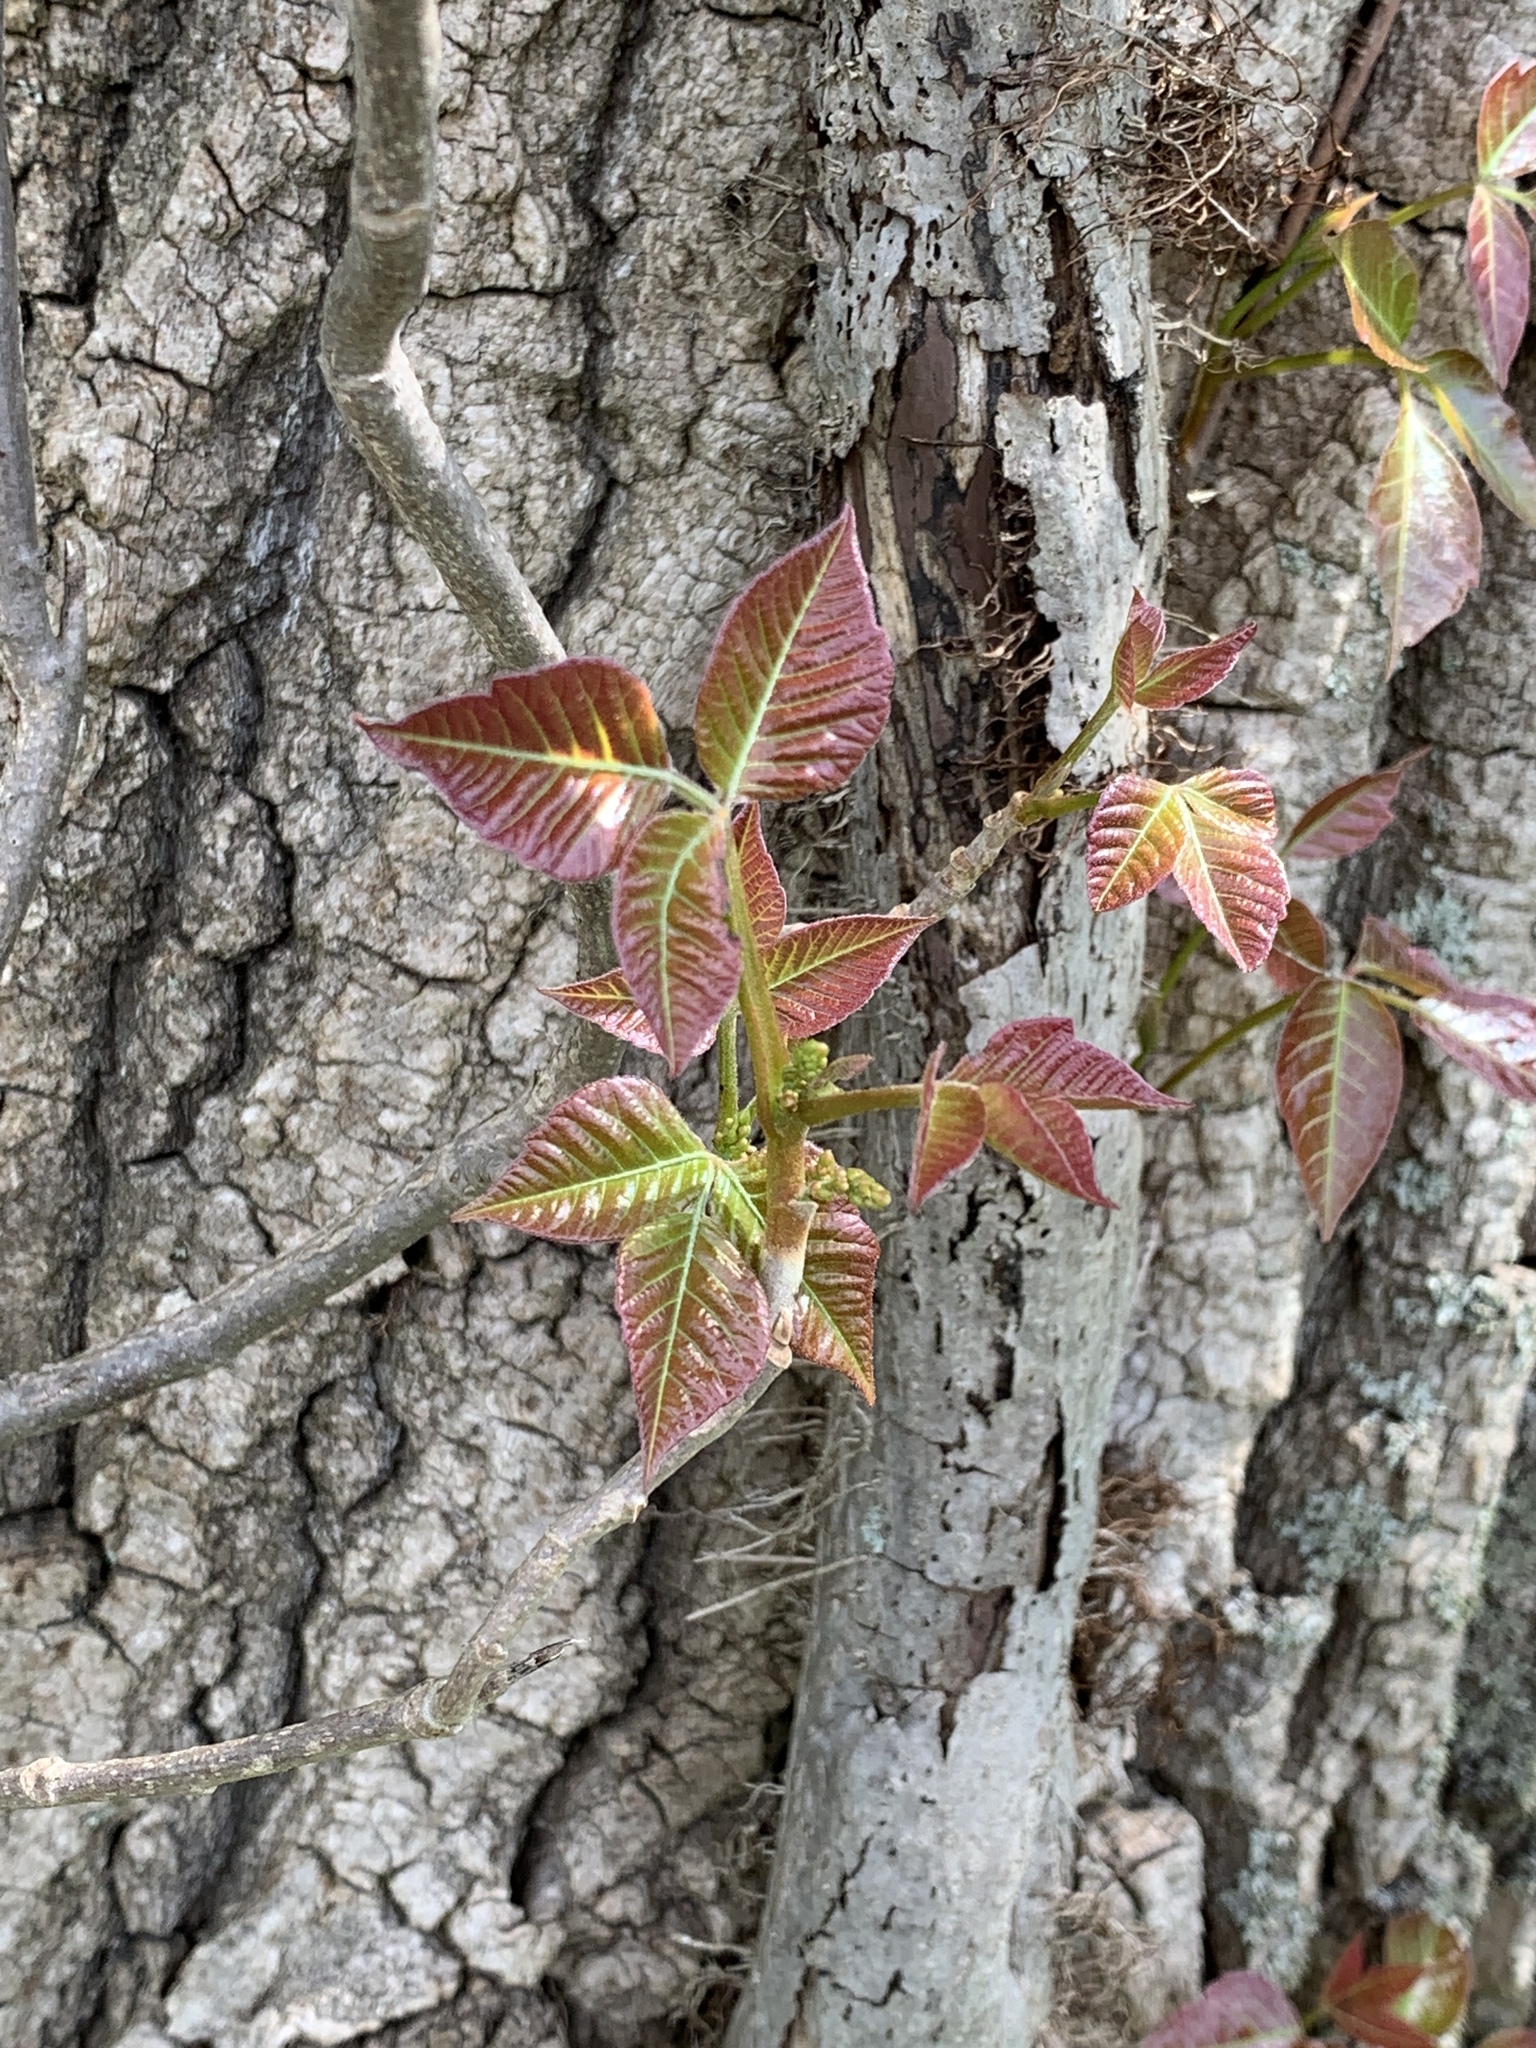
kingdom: Plantae
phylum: Tracheophyta
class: Magnoliopsida
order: Sapindales
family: Anacardiaceae
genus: Toxicodendron
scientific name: Toxicodendron radicans
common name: Poison ivy
